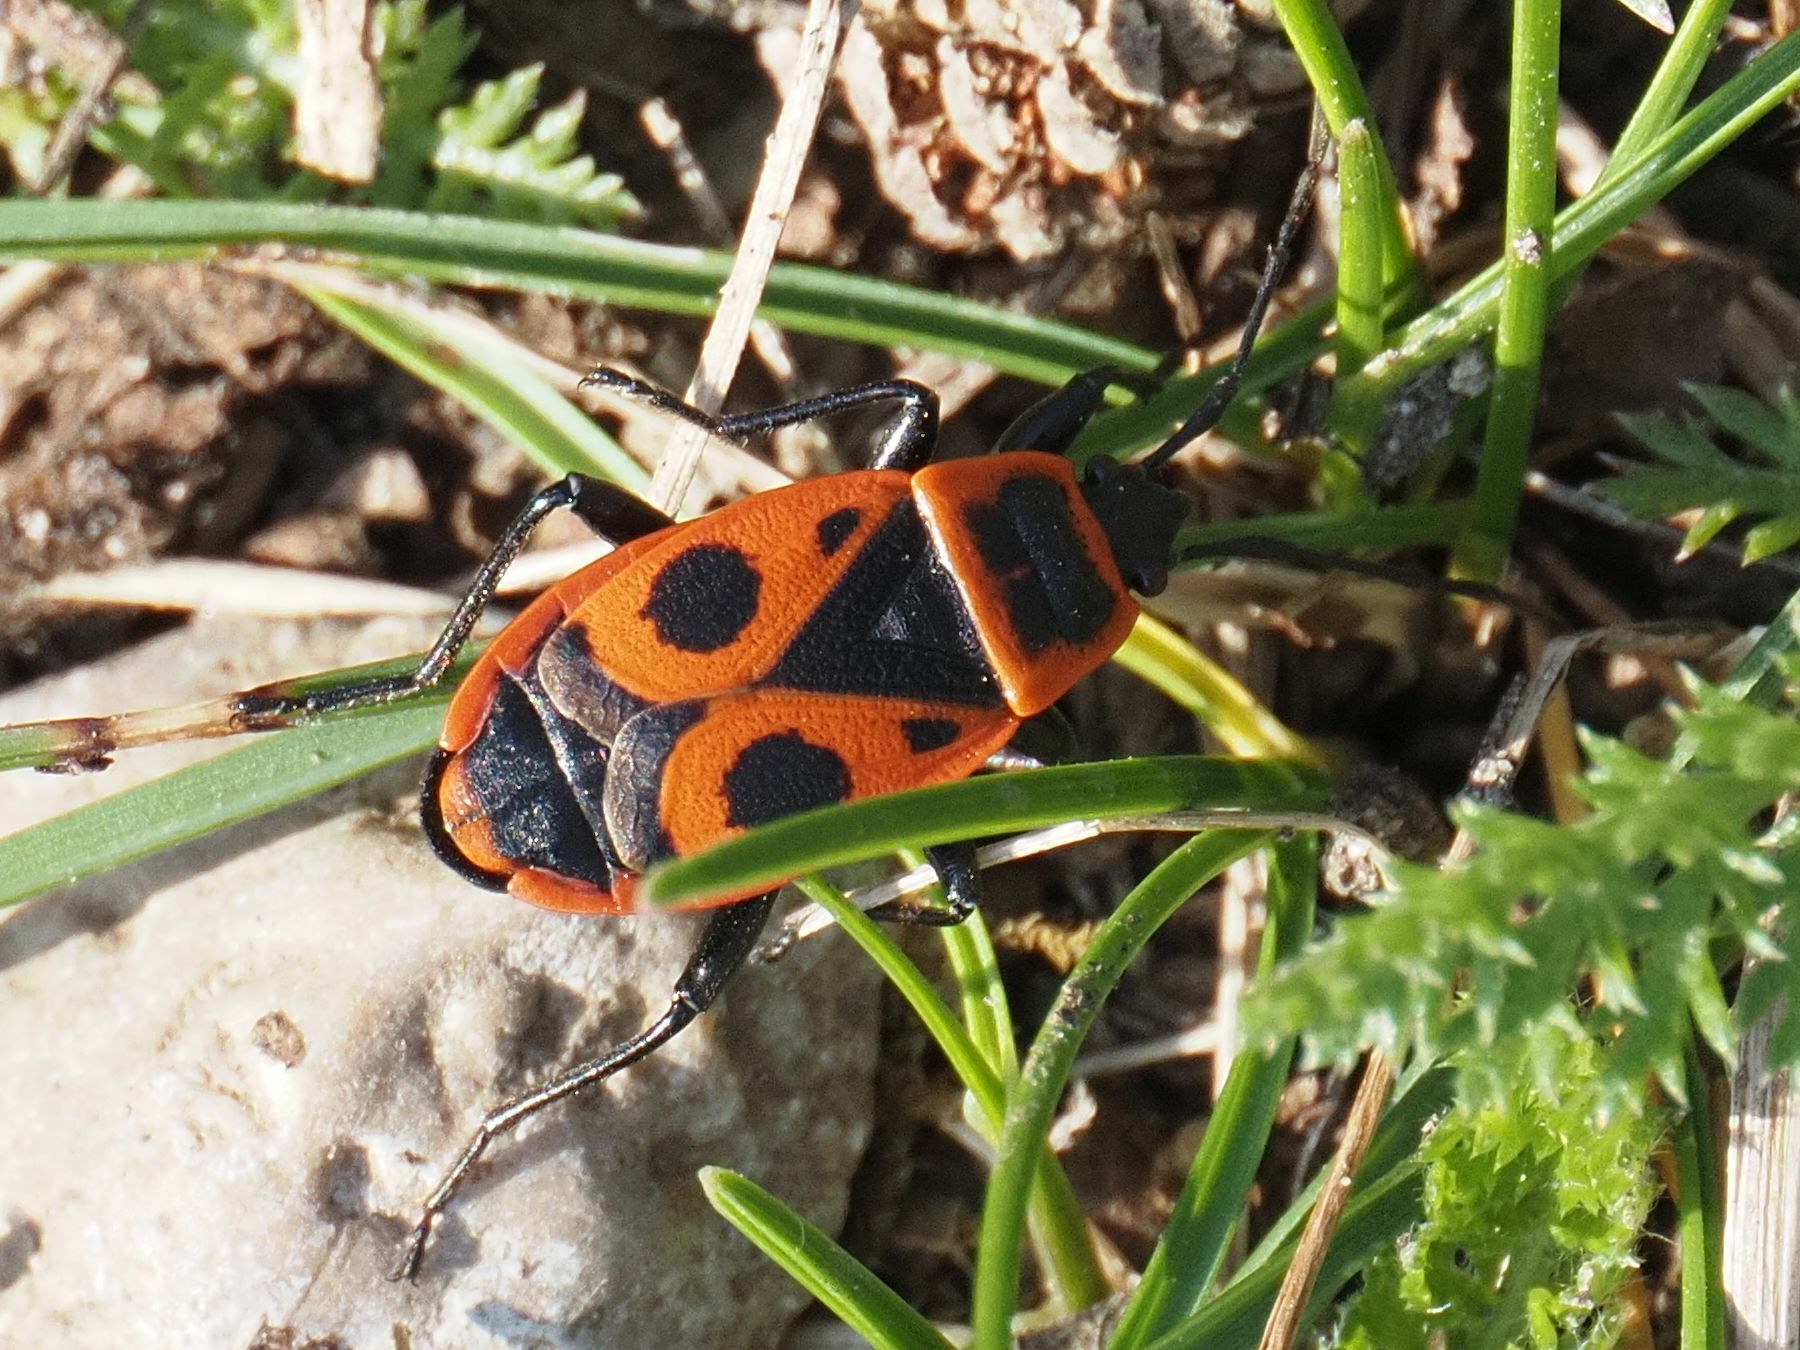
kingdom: Animalia
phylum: Arthropoda
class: Insecta
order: Hemiptera
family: Pyrrhocoridae
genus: Pyrrhocoris
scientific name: Pyrrhocoris apterus
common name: Firebug
